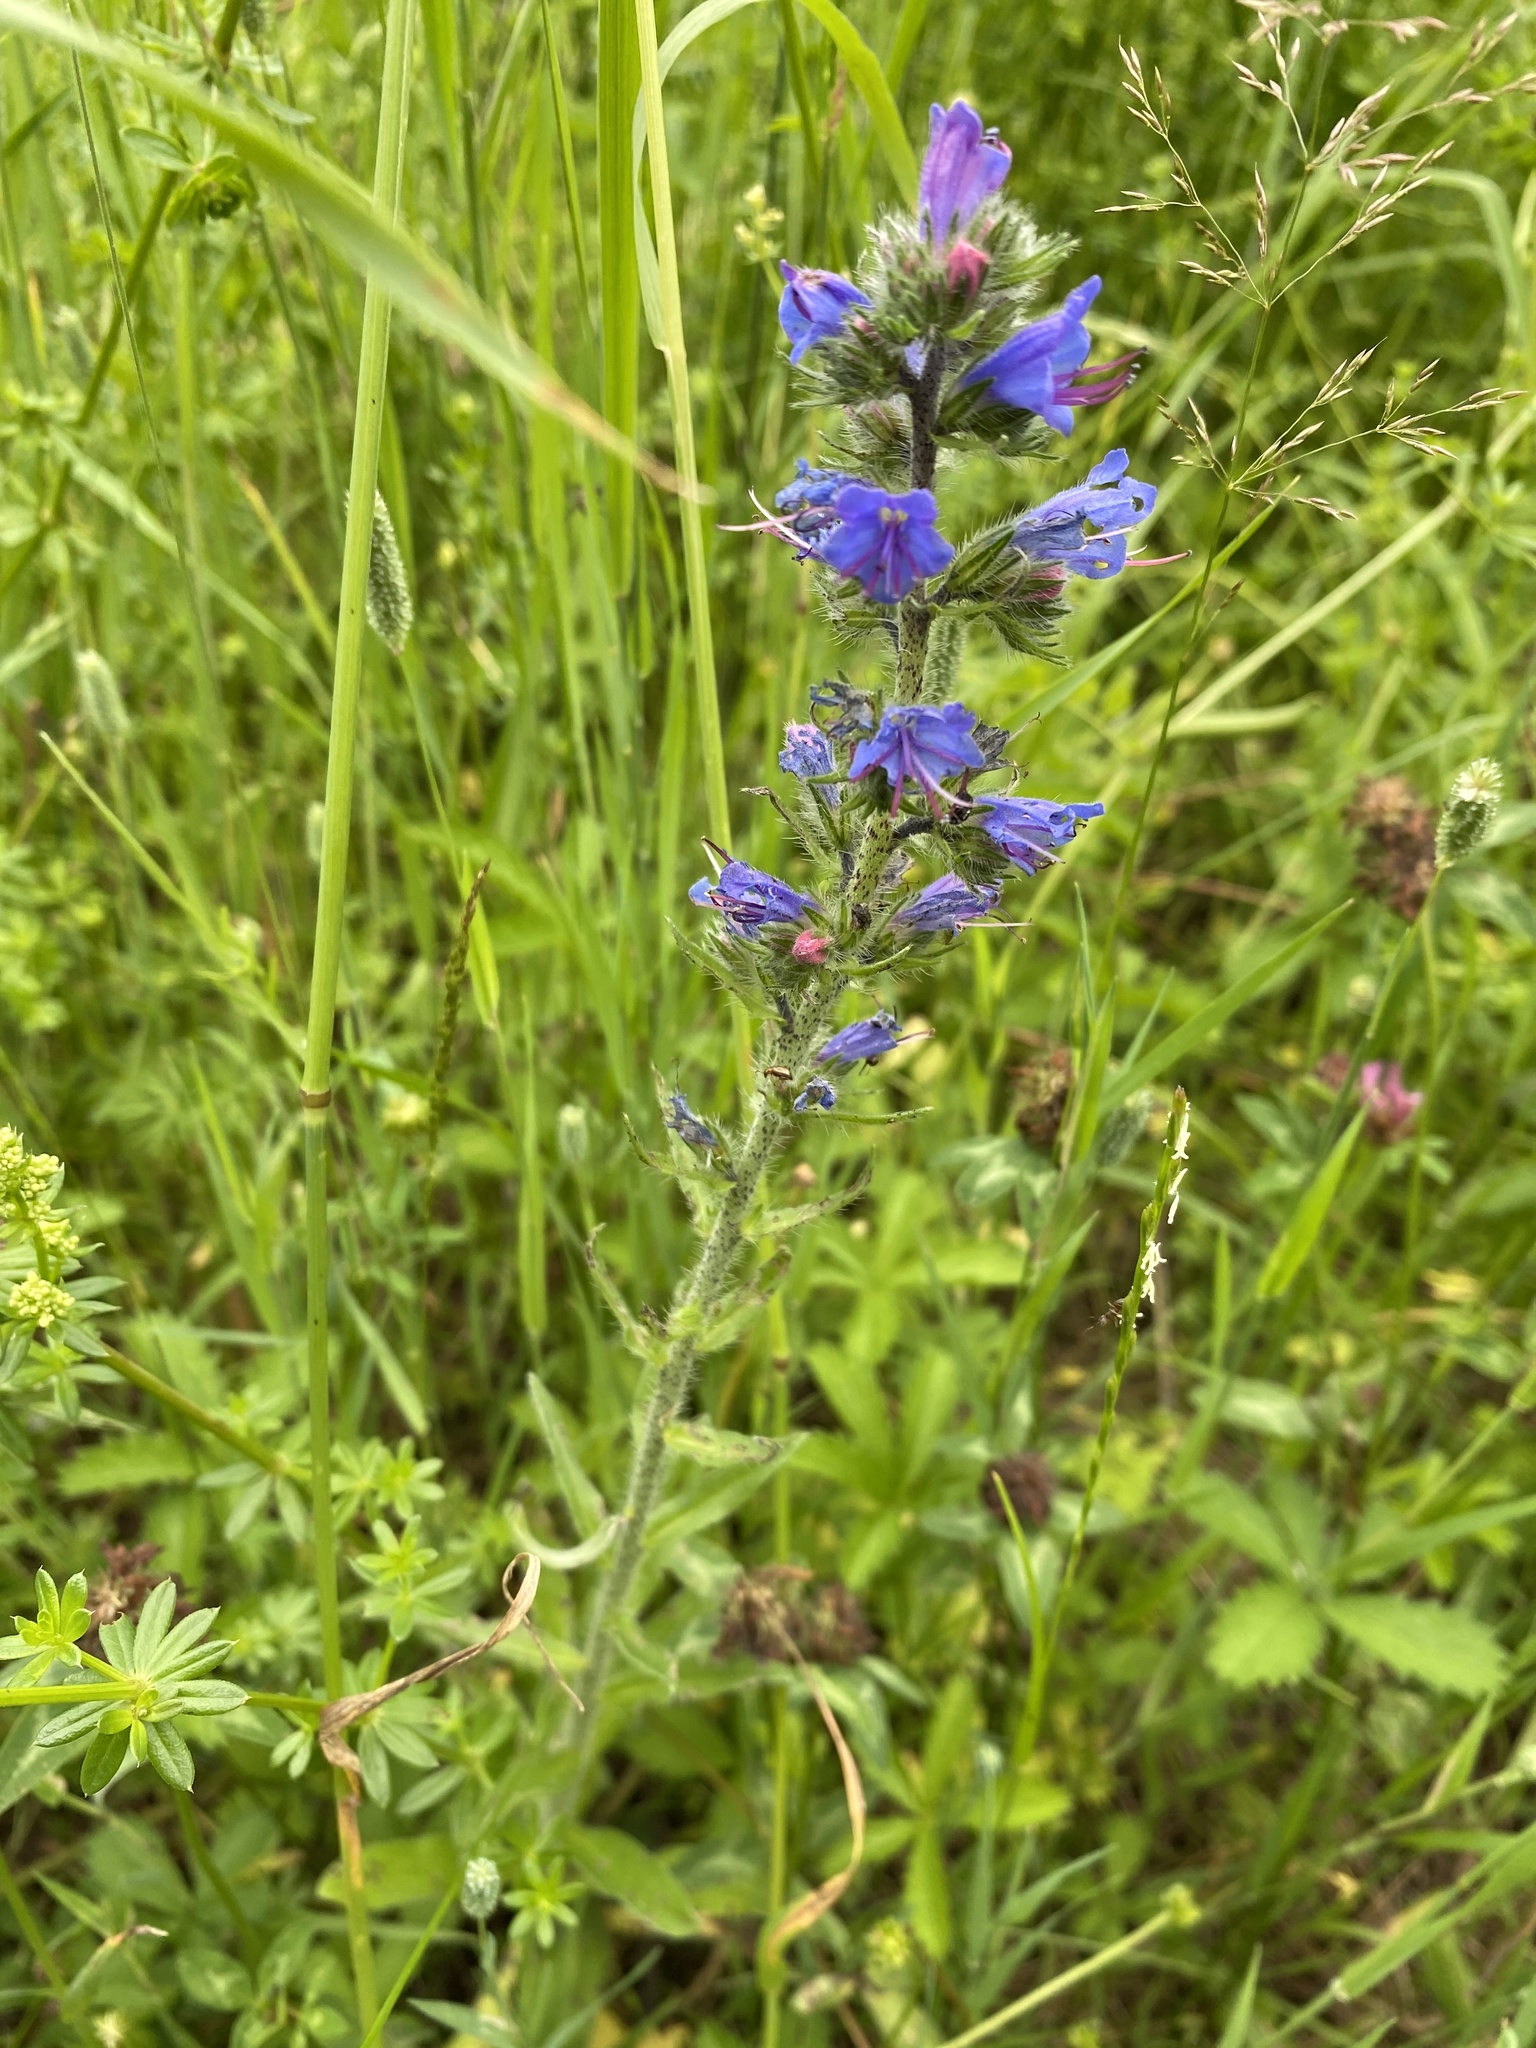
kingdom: Plantae
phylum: Tracheophyta
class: Magnoliopsida
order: Boraginales
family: Boraginaceae
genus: Echium
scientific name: Echium vulgare
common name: Common viper's bugloss
